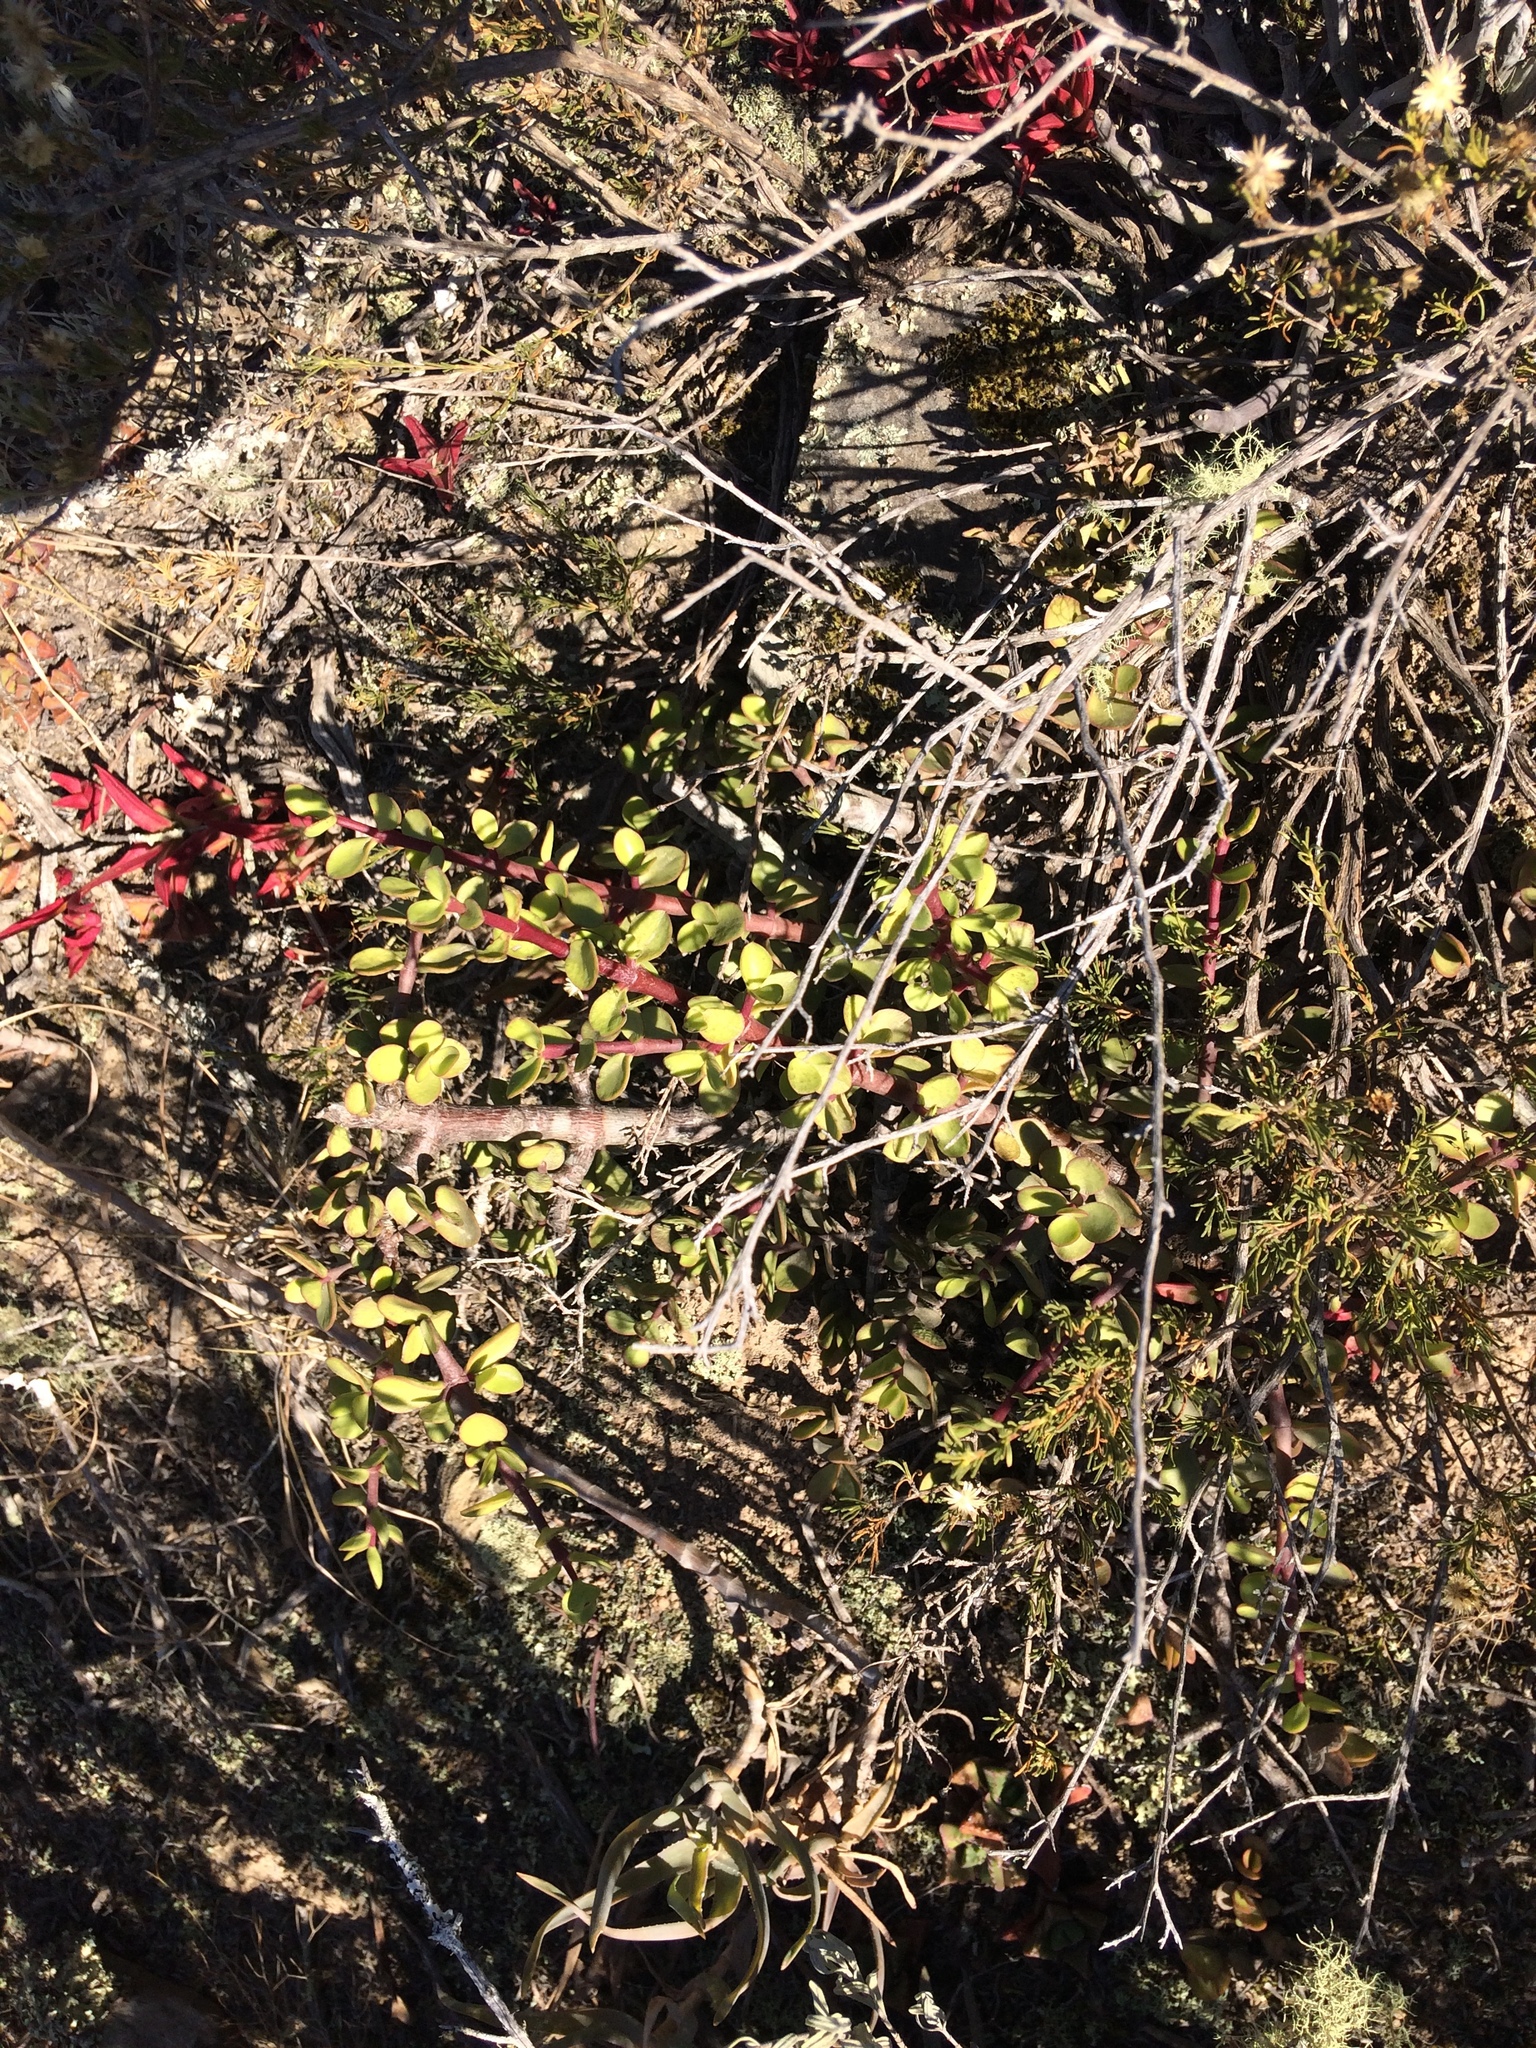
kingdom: Plantae
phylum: Tracheophyta
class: Magnoliopsida
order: Caryophyllales
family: Didiereaceae
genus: Portulacaria
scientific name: Portulacaria afra
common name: Elephant-bush
